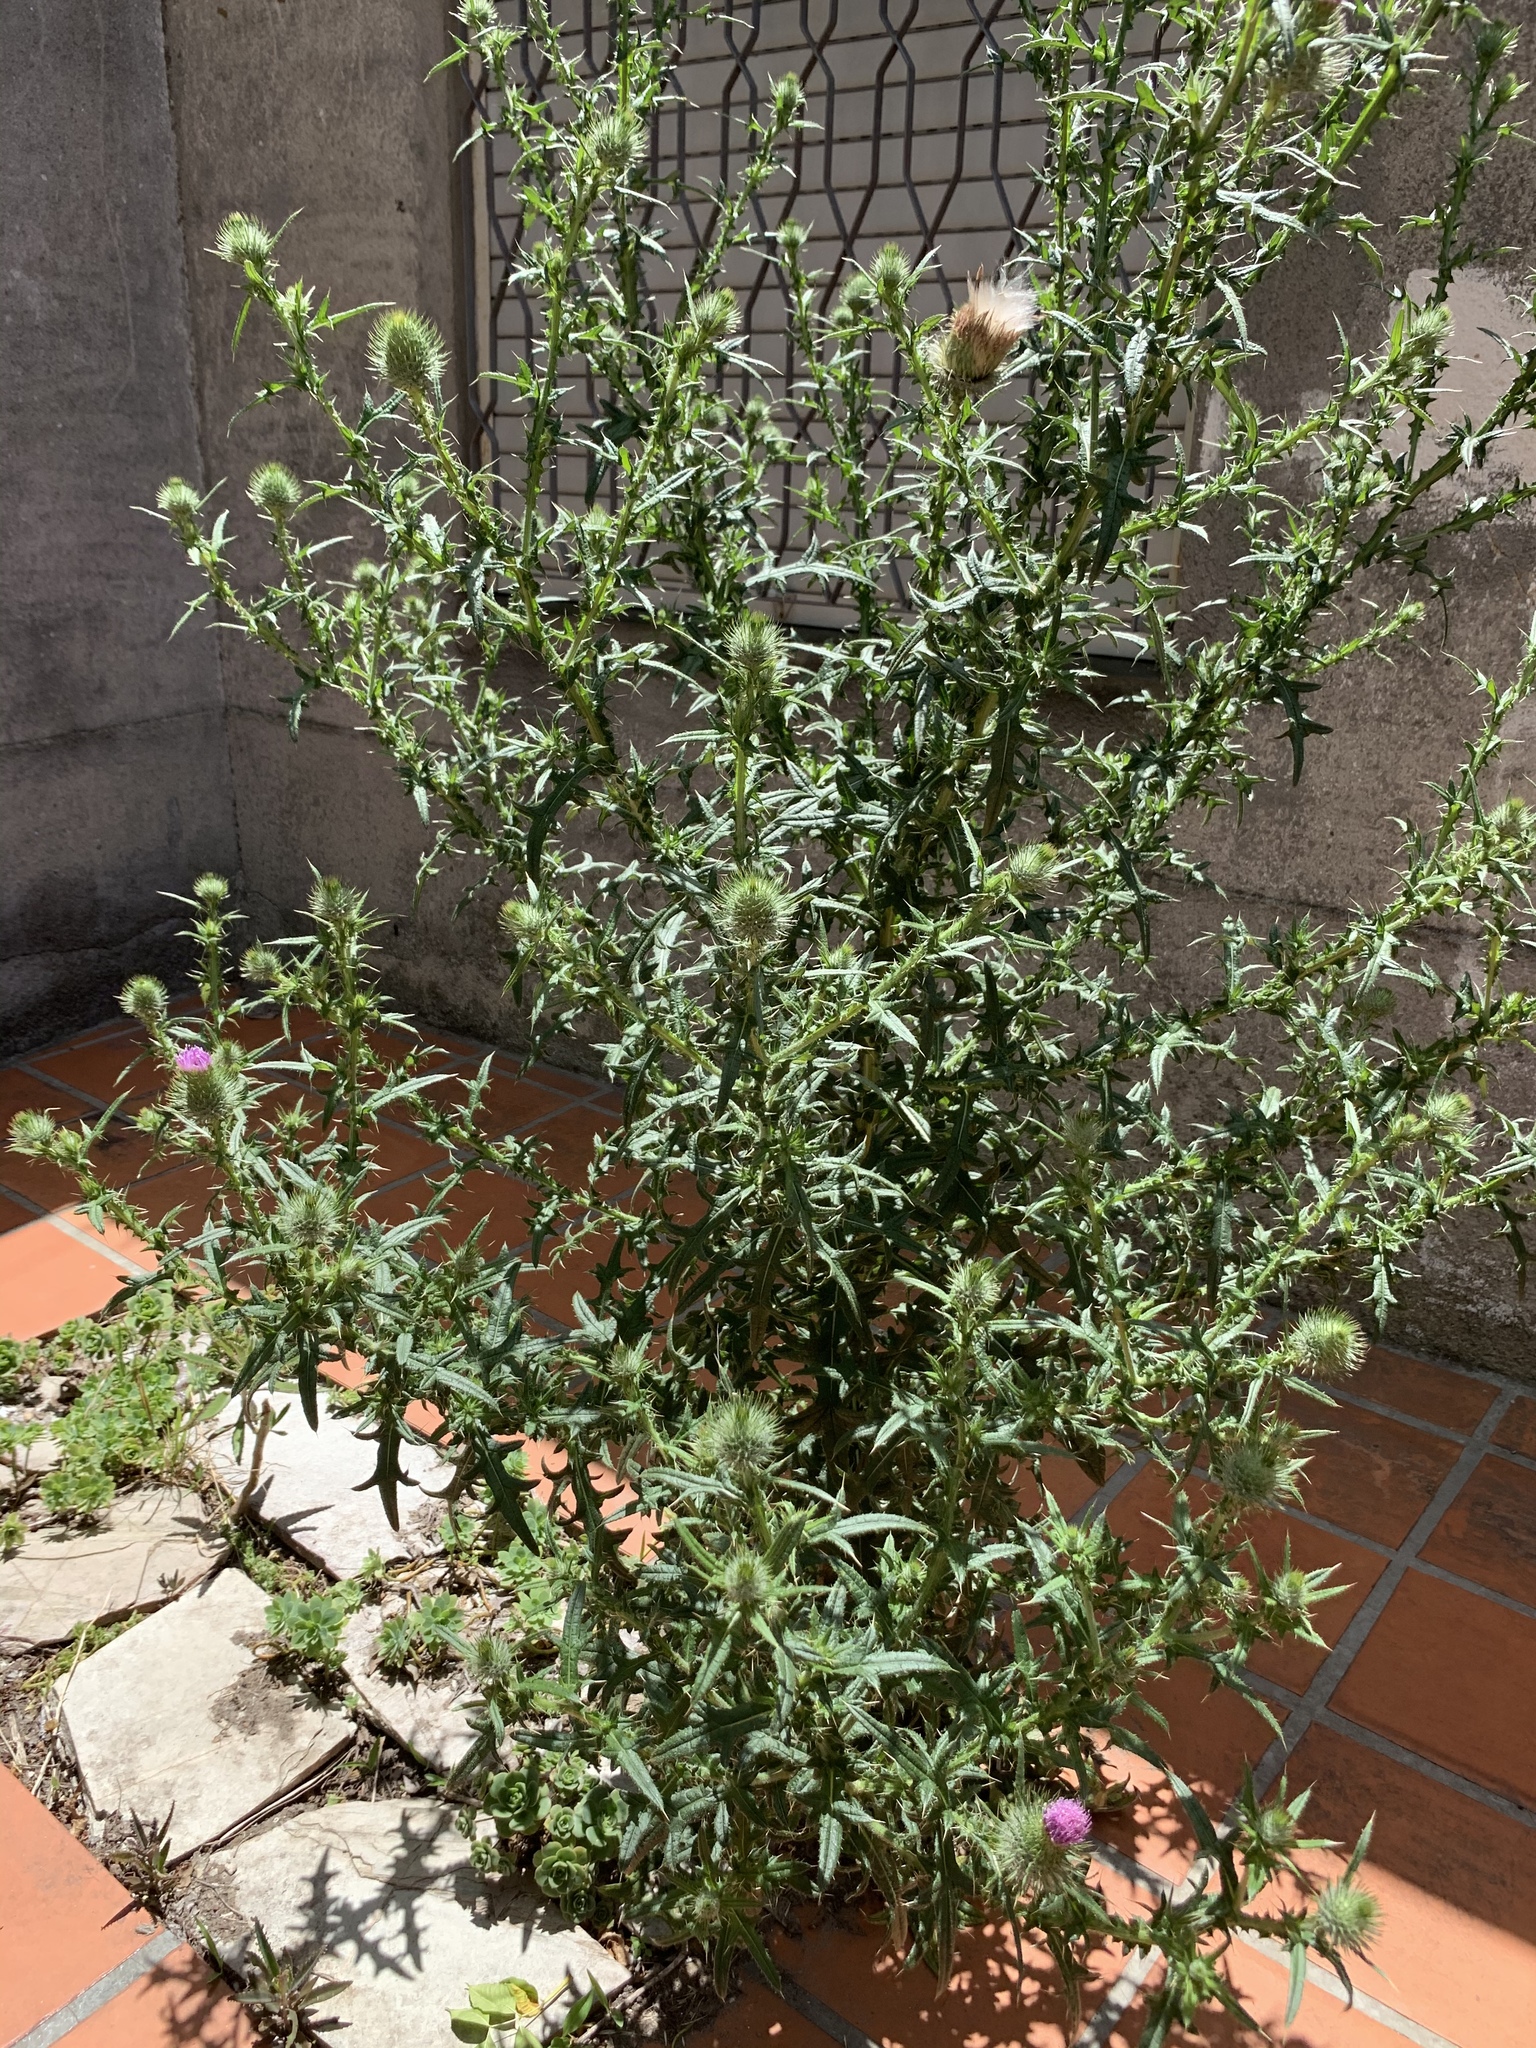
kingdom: Plantae
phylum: Tracheophyta
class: Magnoliopsida
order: Asterales
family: Asteraceae
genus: Cirsium
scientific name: Cirsium vulgare
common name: Bull thistle
